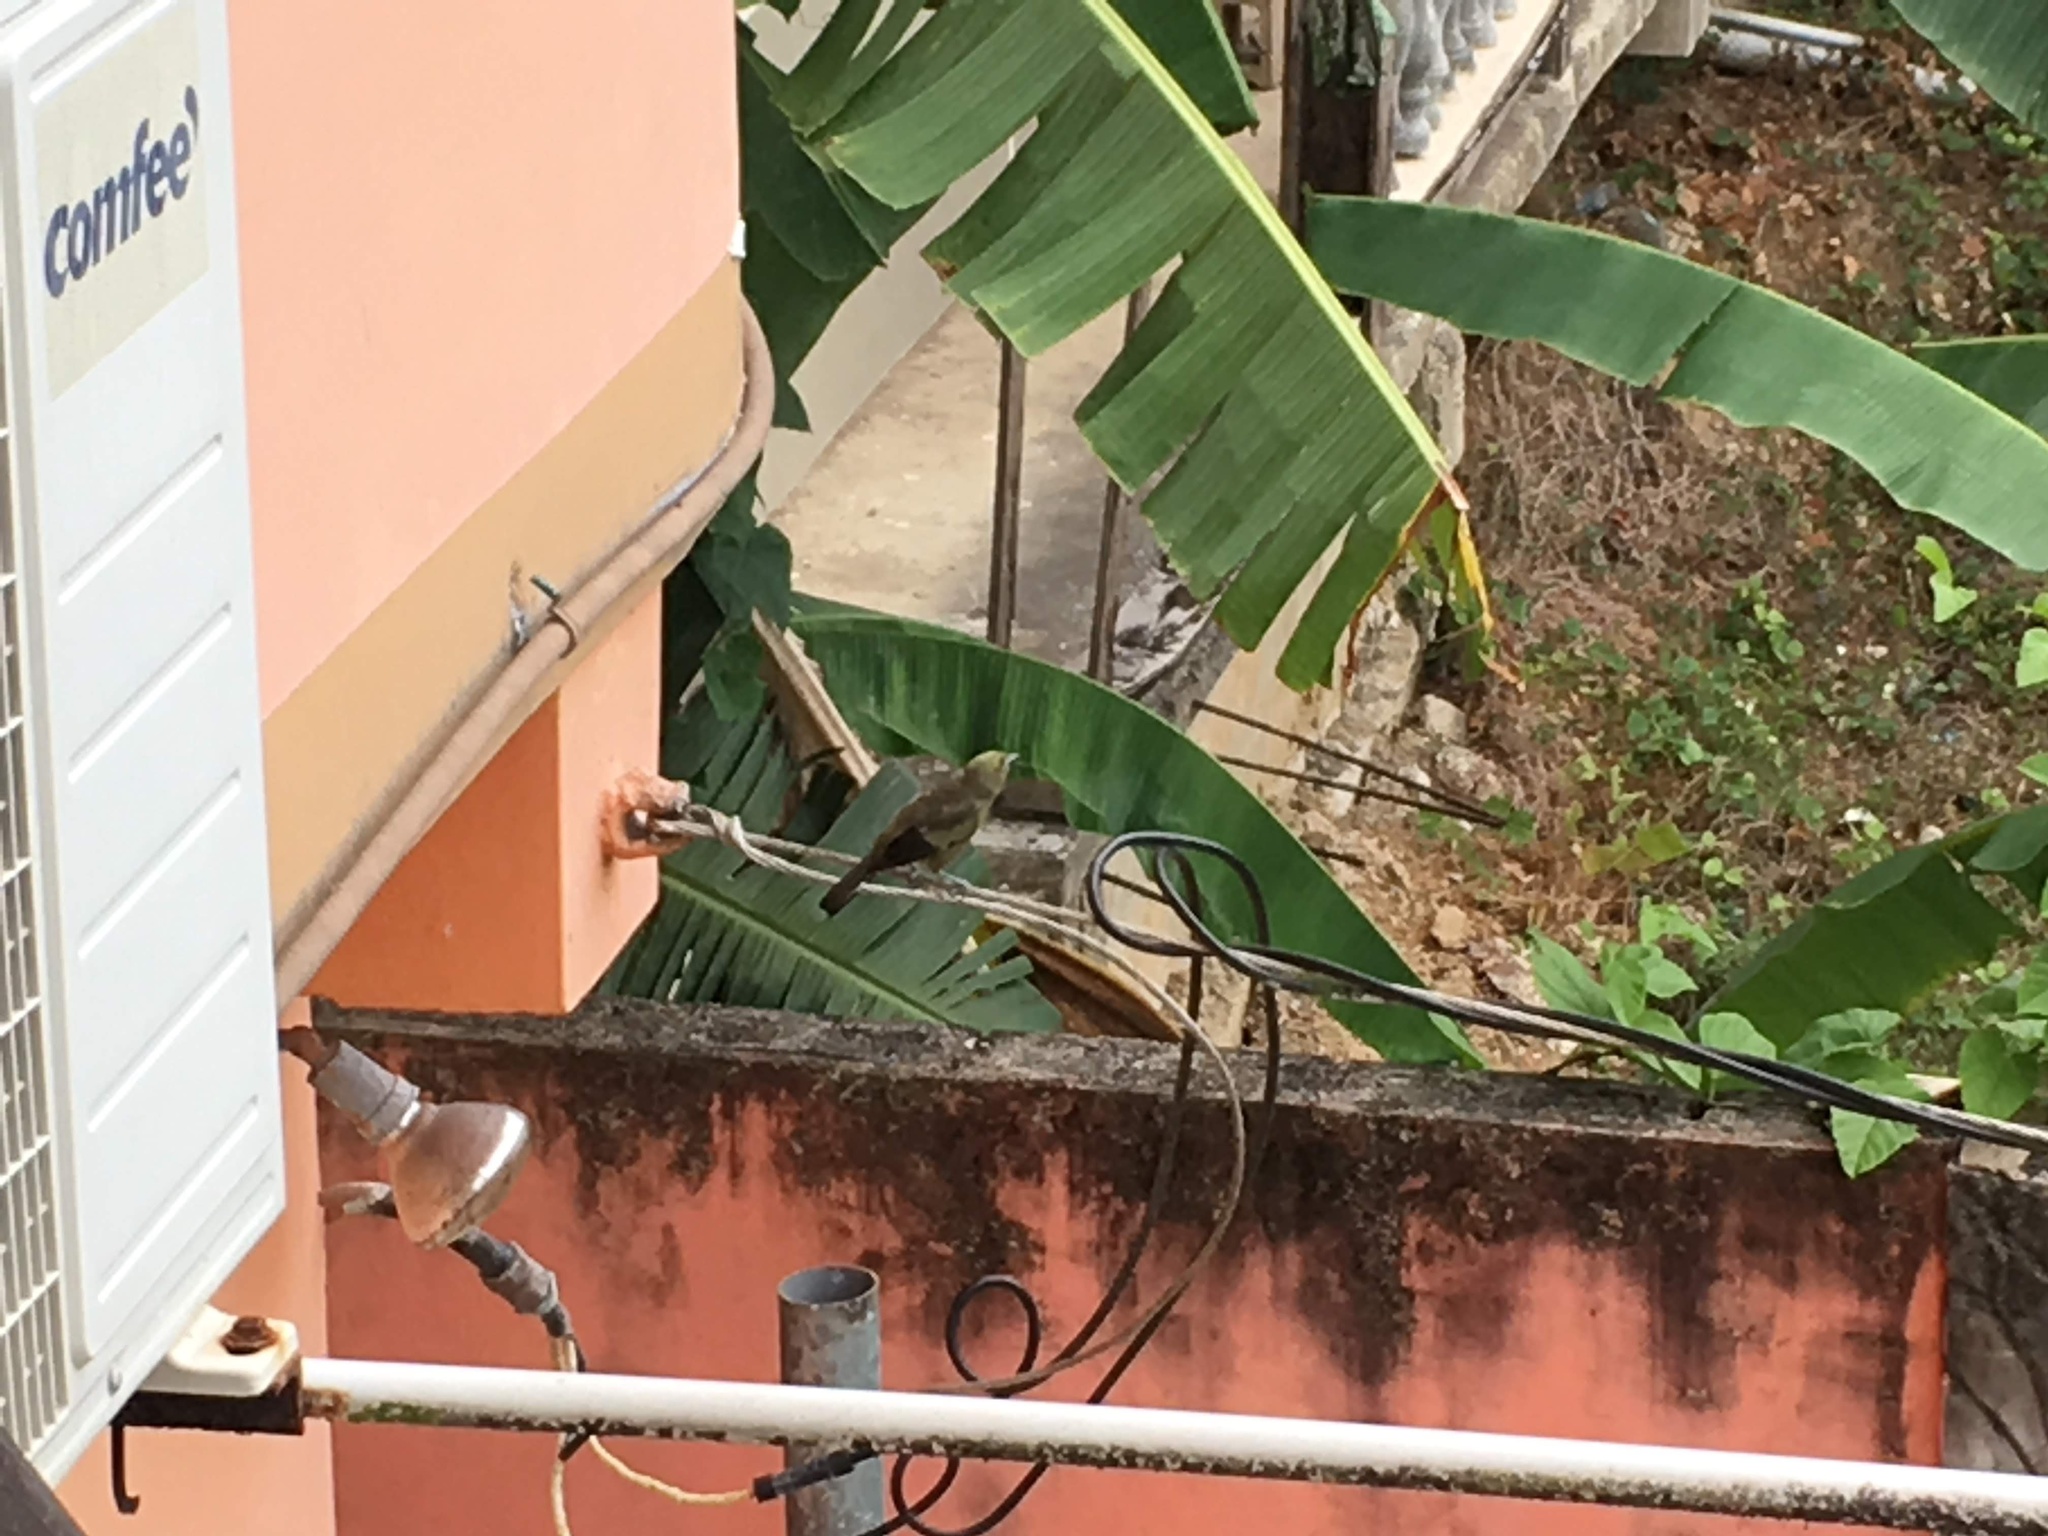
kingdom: Animalia
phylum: Chordata
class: Aves
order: Passeriformes
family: Thraupidae
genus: Thraupis
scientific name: Thraupis palmarum
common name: Palm tanager
